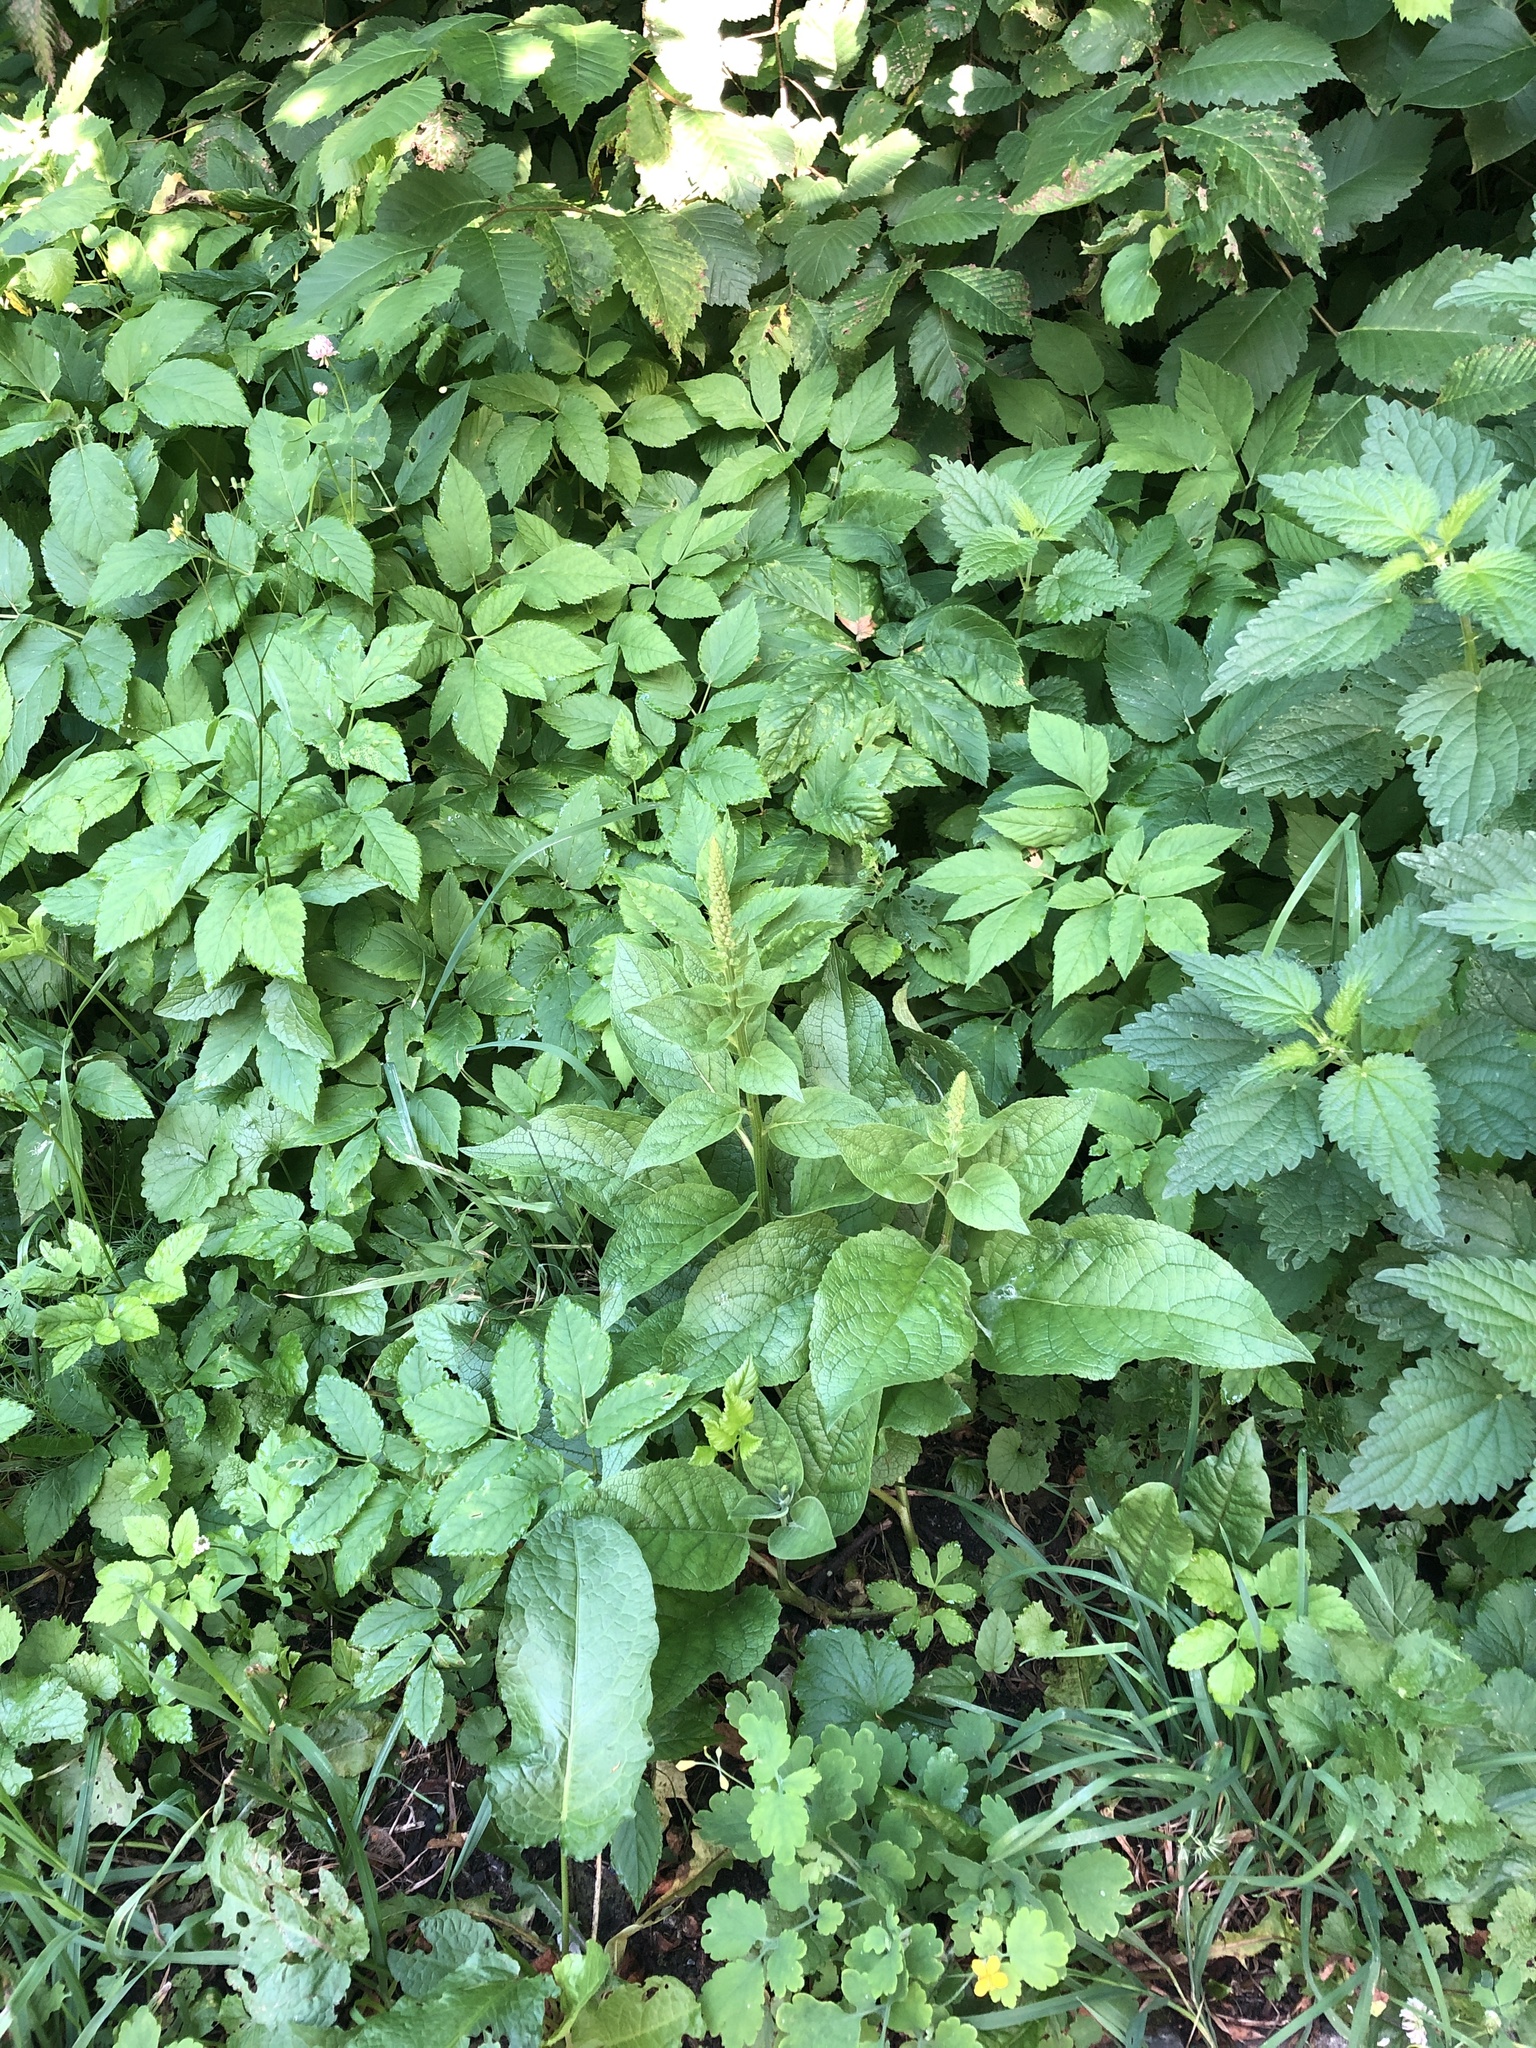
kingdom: Plantae
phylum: Tracheophyta
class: Magnoliopsida
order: Lamiales
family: Scrophulariaceae
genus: Verbascum
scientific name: Verbascum nigrum
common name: Dark mullein
